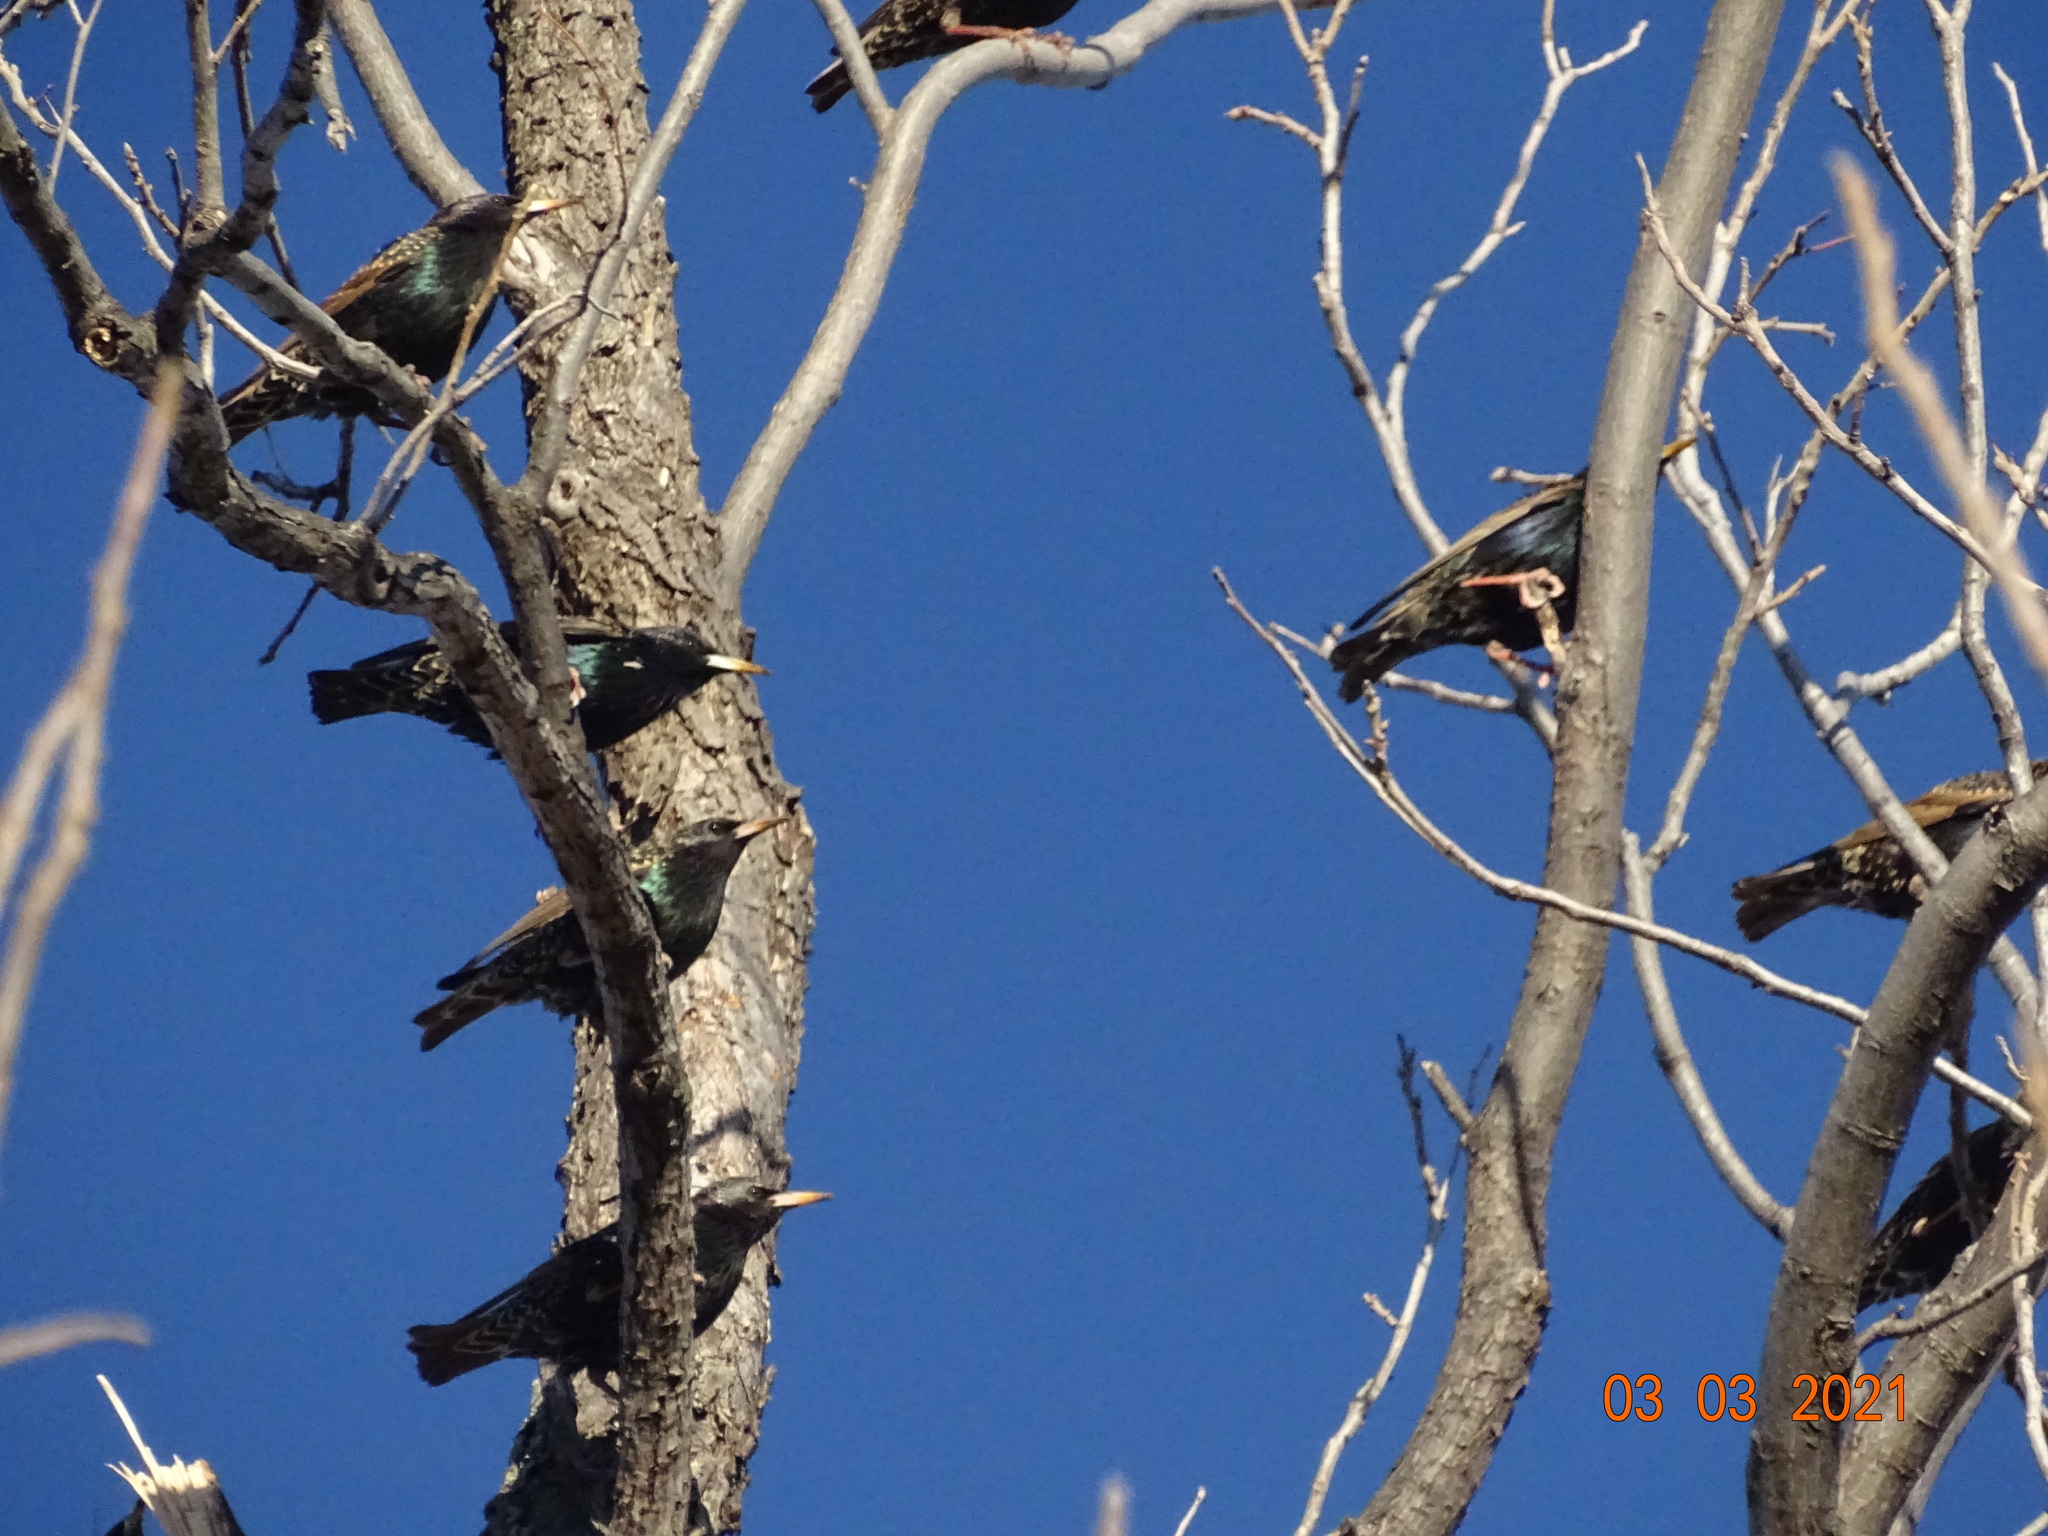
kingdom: Animalia
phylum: Chordata
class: Aves
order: Passeriformes
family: Sturnidae
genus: Sturnus
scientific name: Sturnus vulgaris
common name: Common starling
